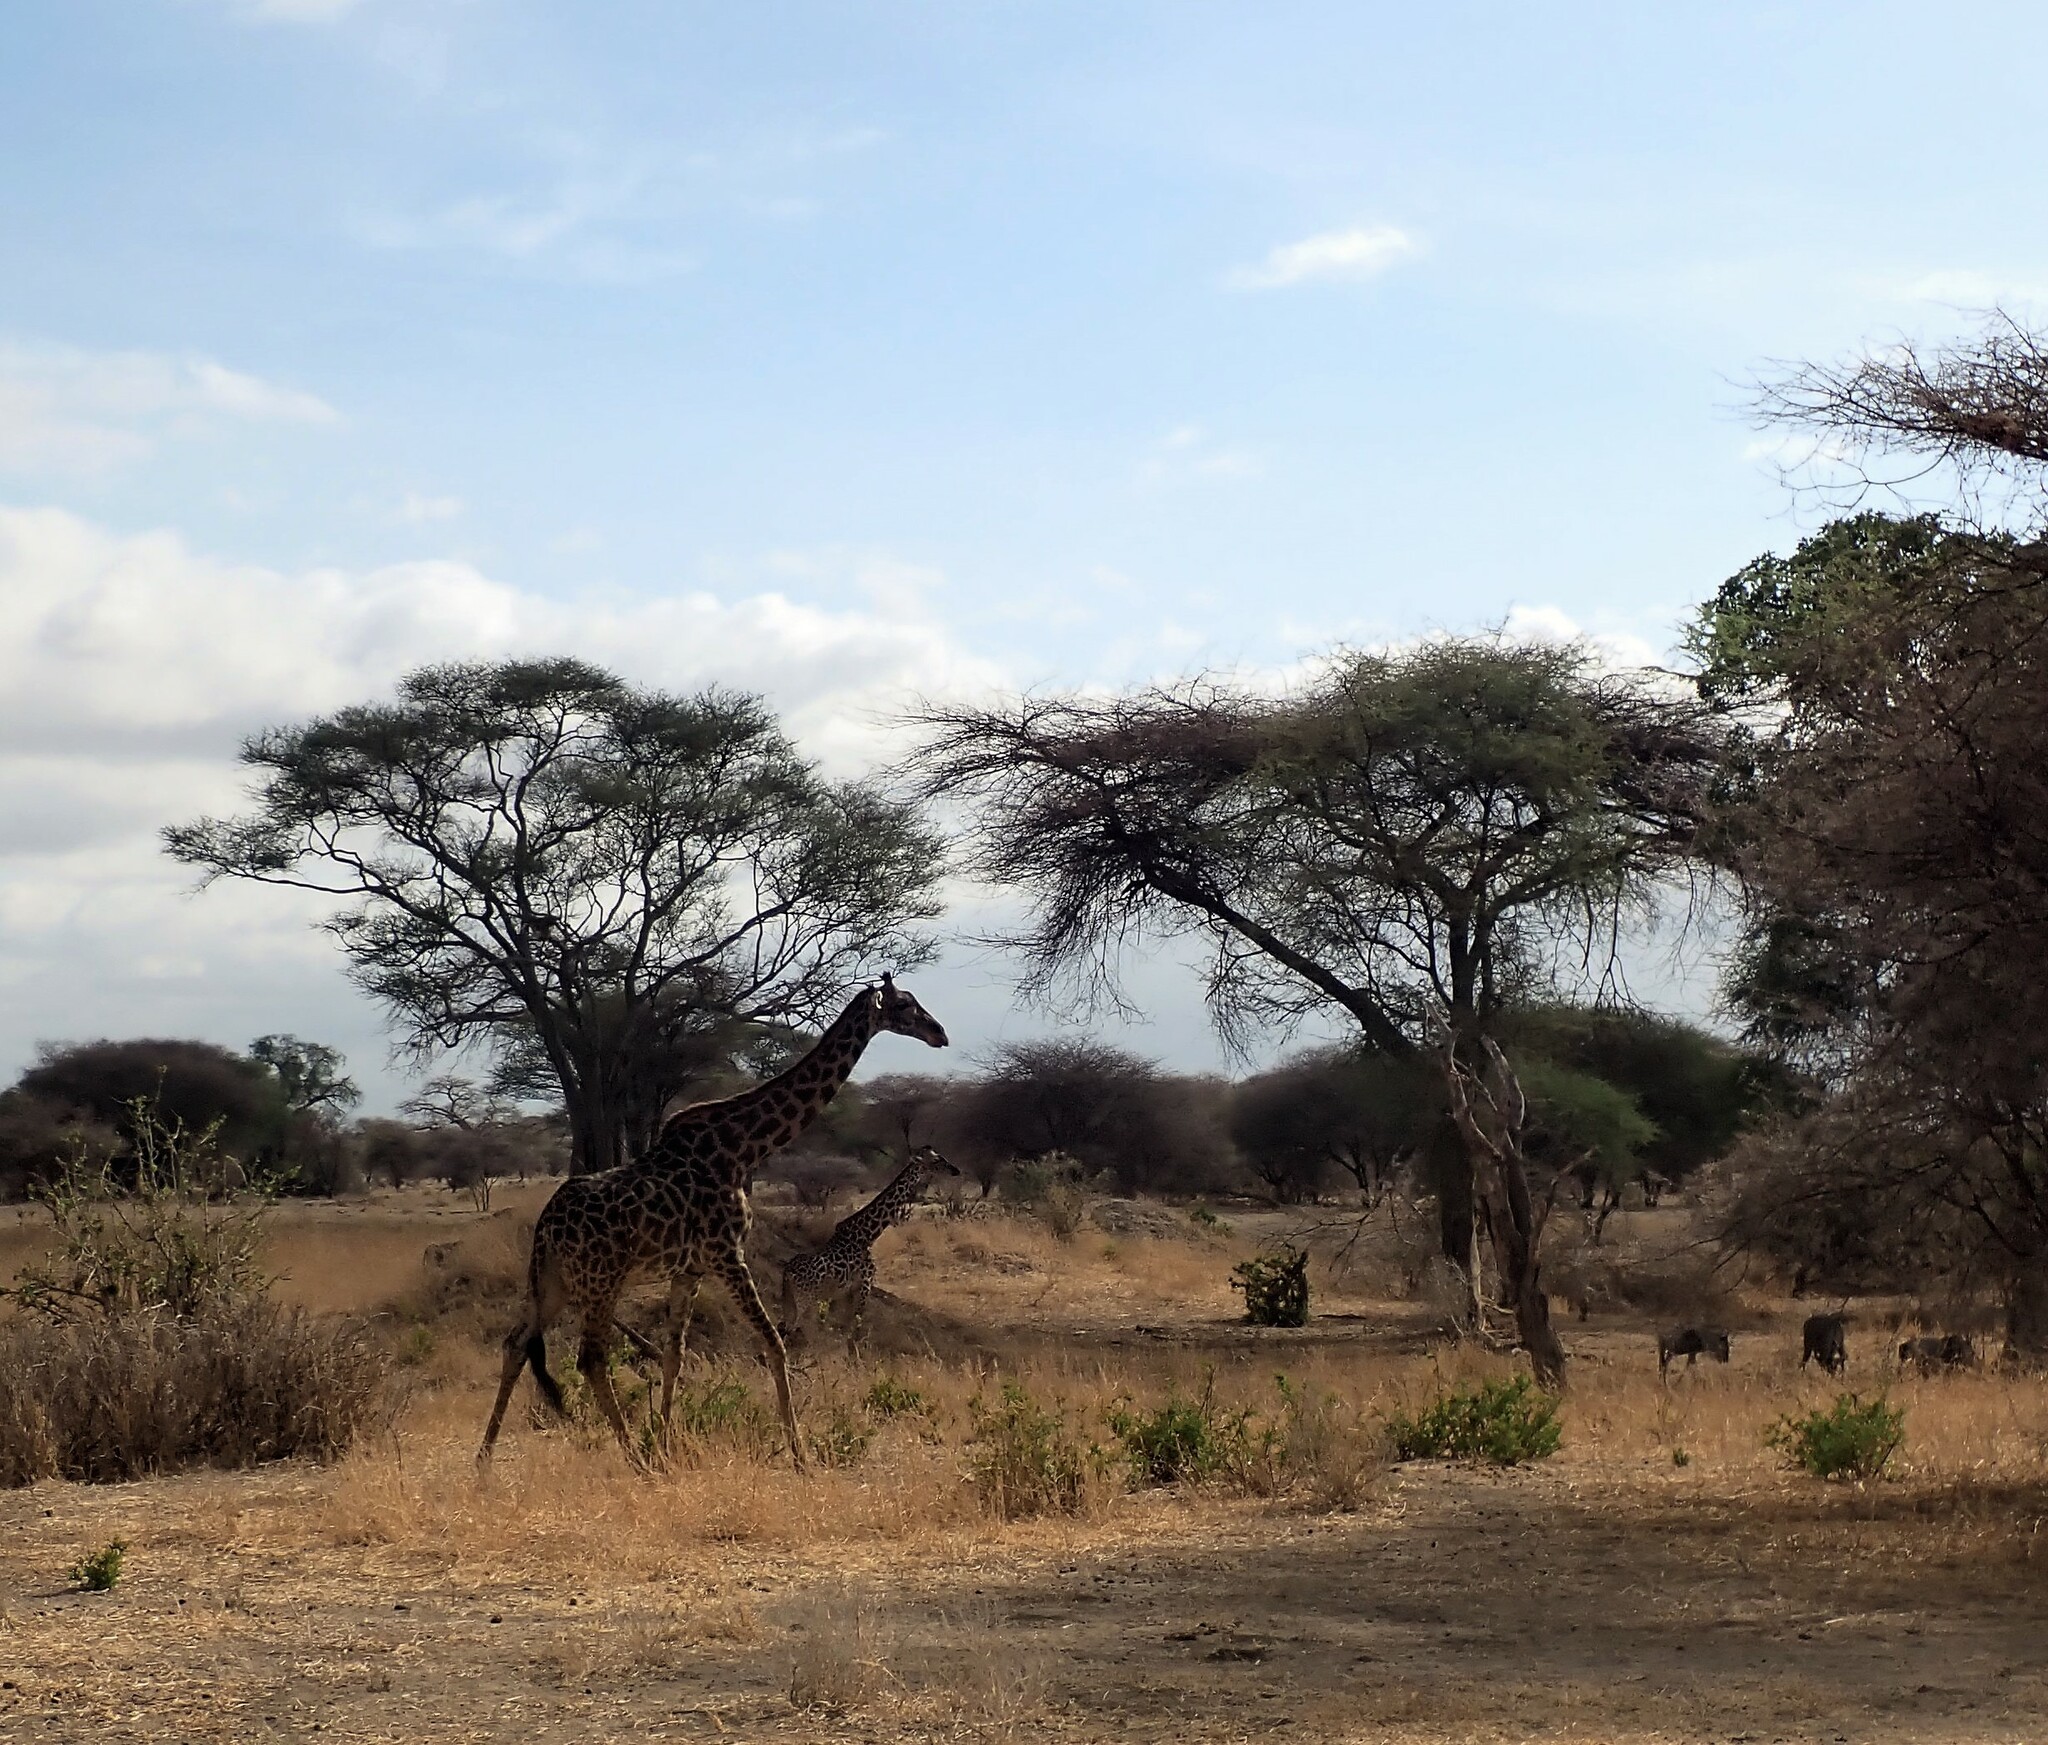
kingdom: Animalia
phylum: Chordata
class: Mammalia
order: Artiodactyla
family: Giraffidae
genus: Giraffa
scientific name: Giraffa tippelskirchi
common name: Masai giraffe
